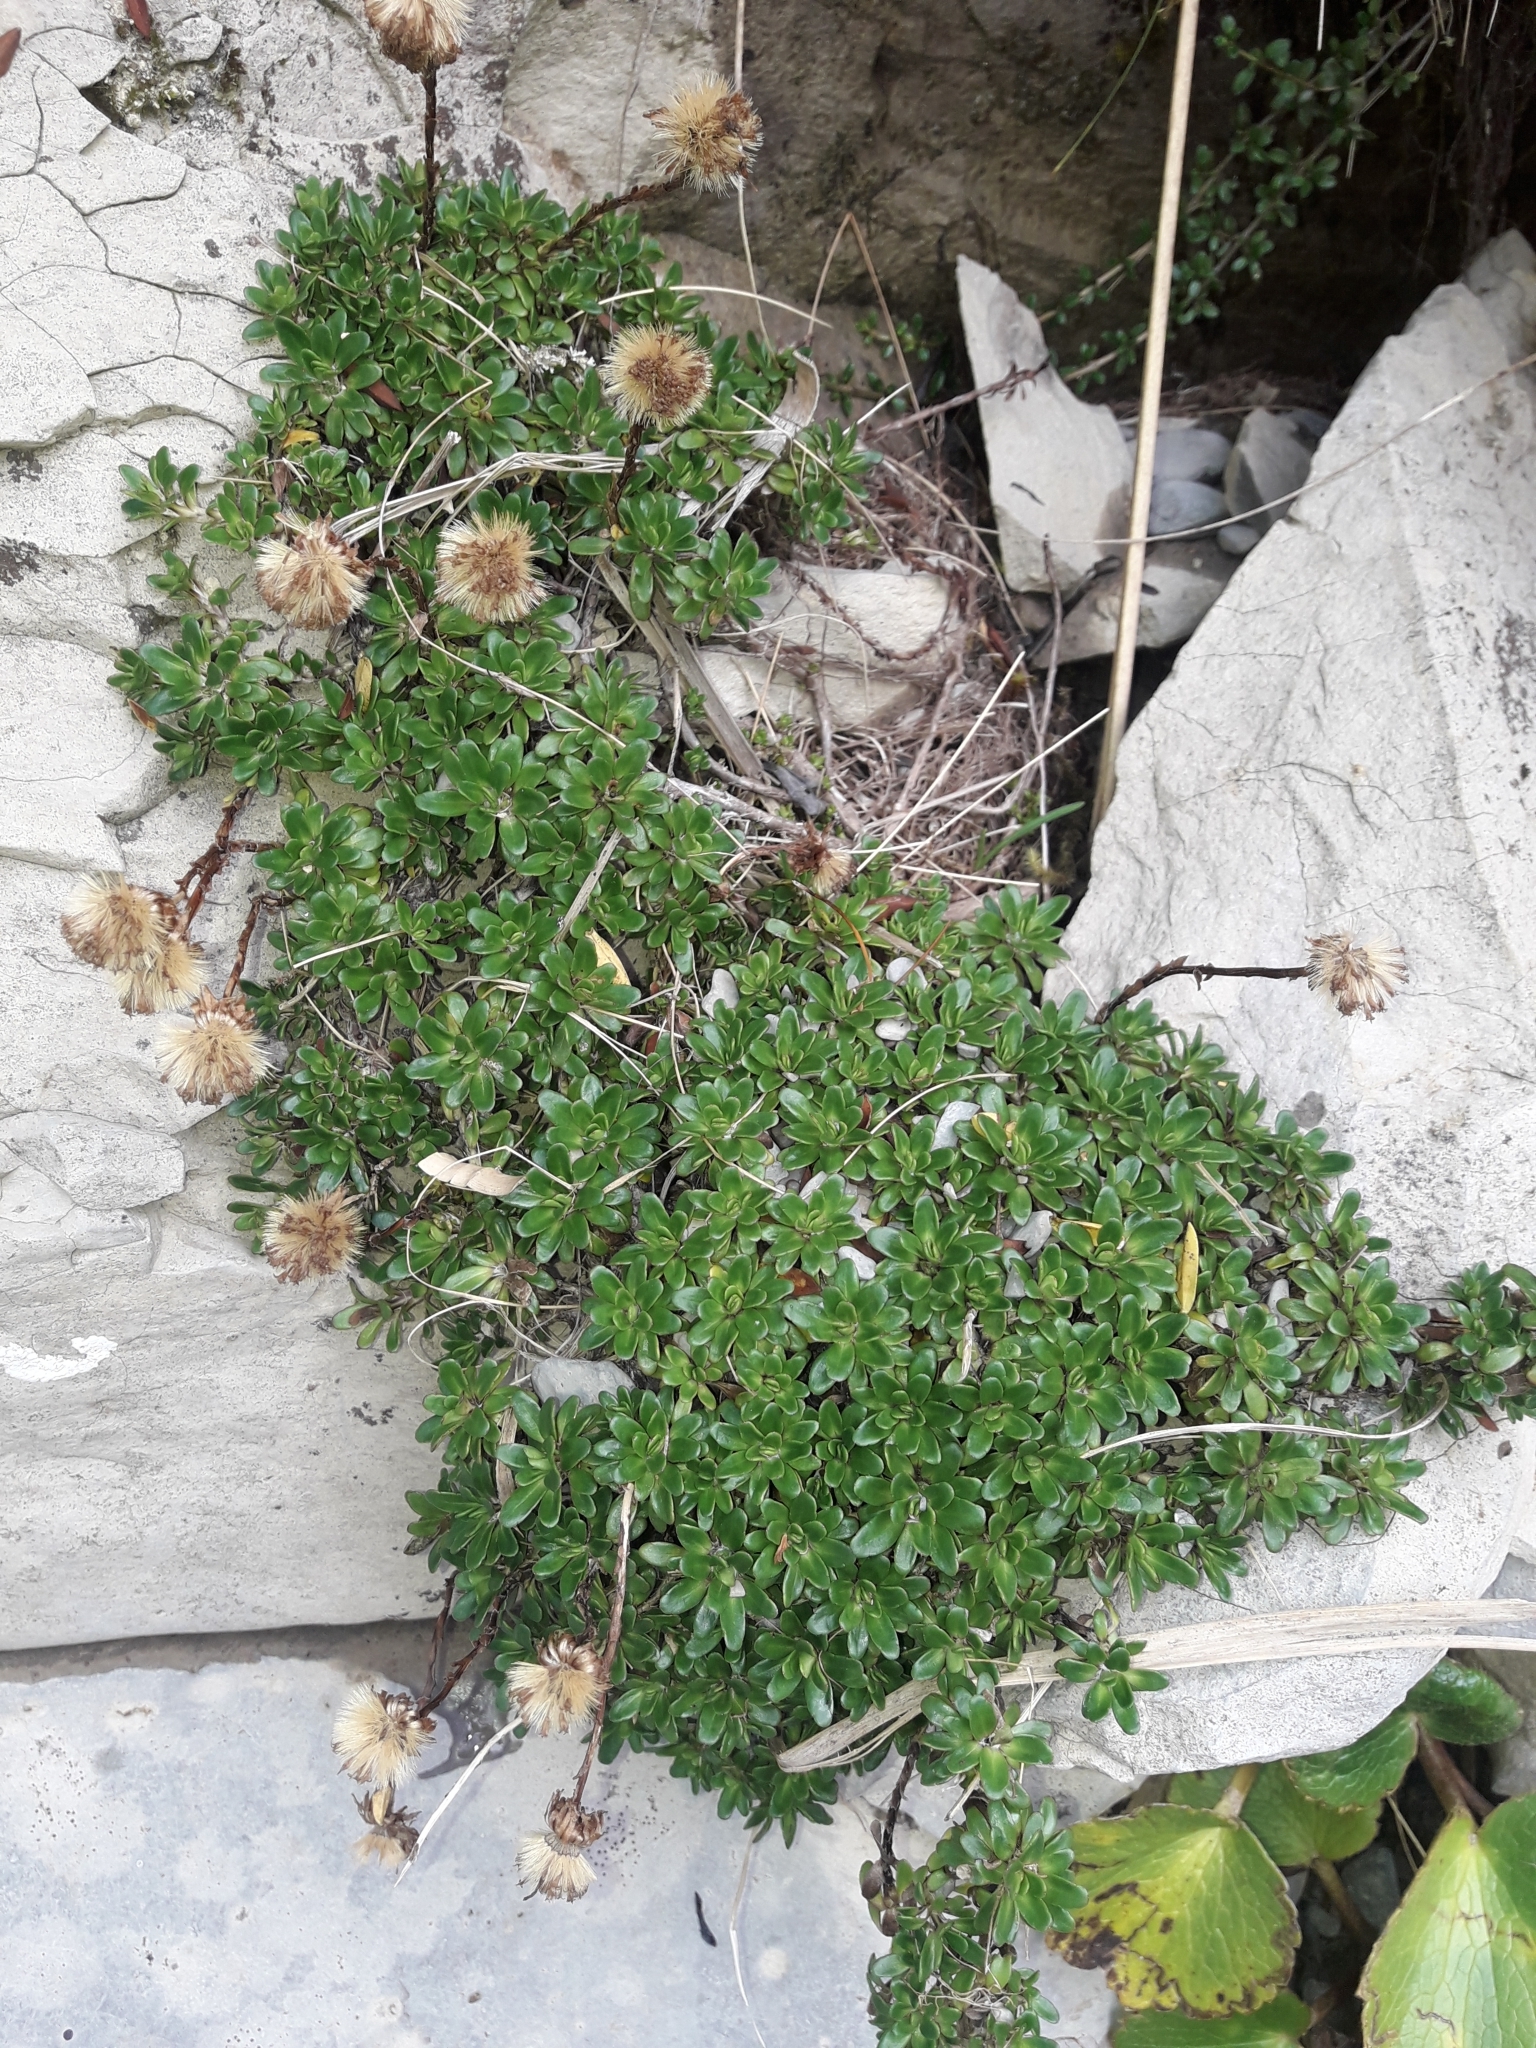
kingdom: Plantae
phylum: Tracheophyta
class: Magnoliopsida
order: Asterales
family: Asteraceae
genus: Celmisia
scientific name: Celmisia bellidioides
